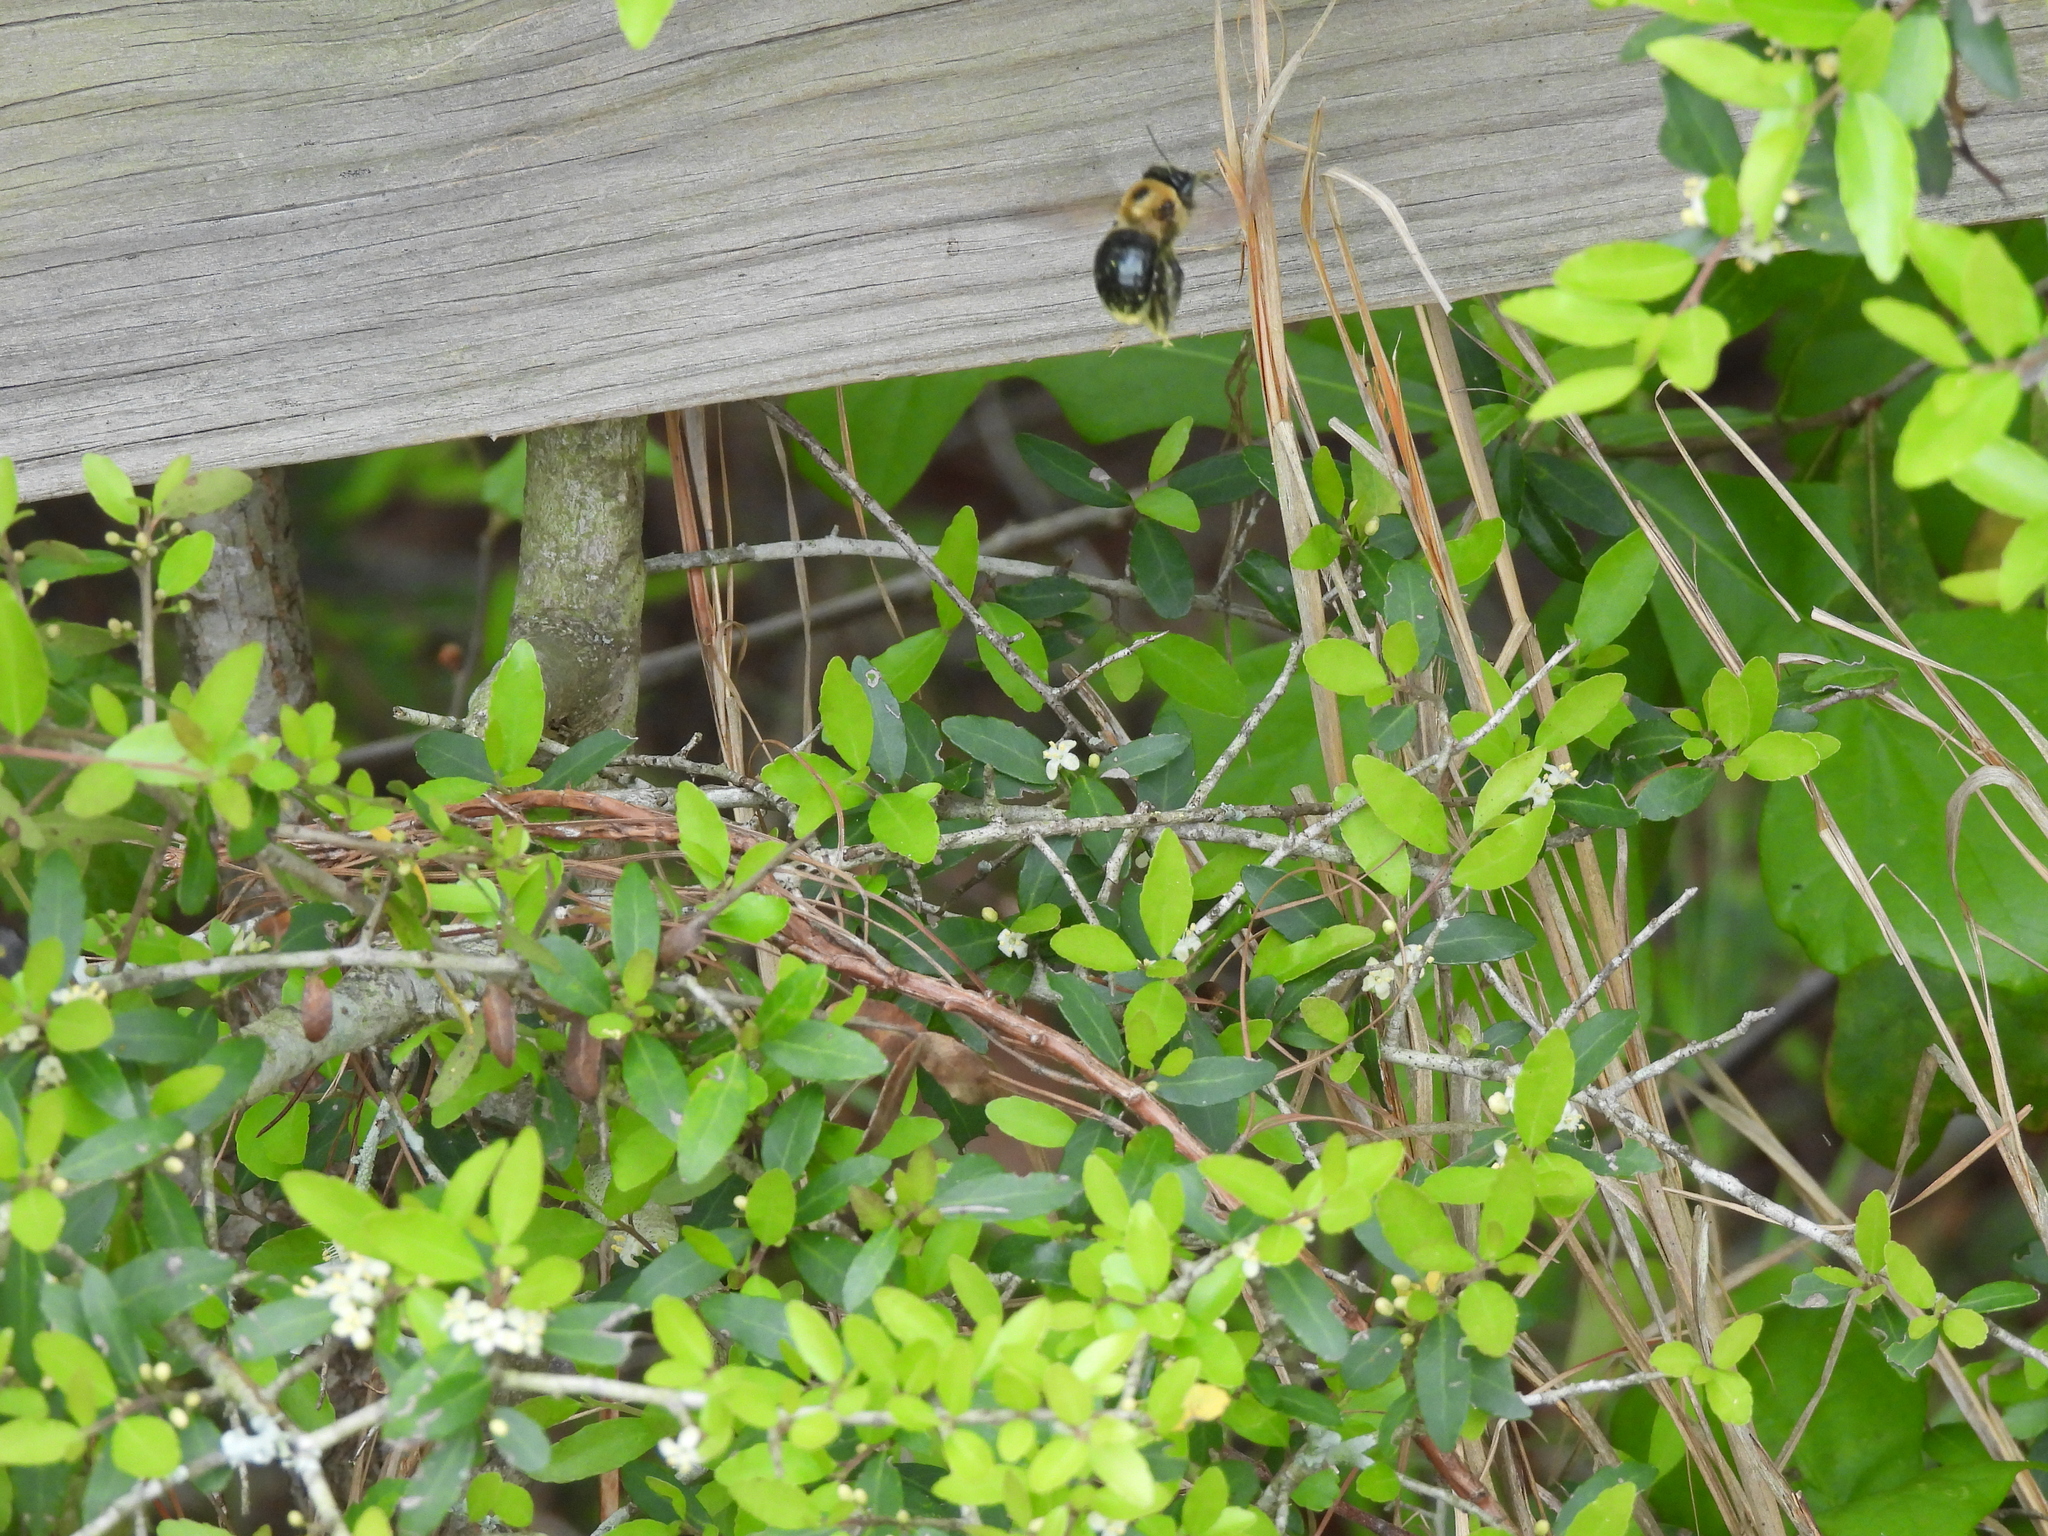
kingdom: Animalia
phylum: Arthropoda
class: Insecta
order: Hymenoptera
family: Apidae
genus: Xylocopa
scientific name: Xylocopa virginica
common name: Carpenter bee
